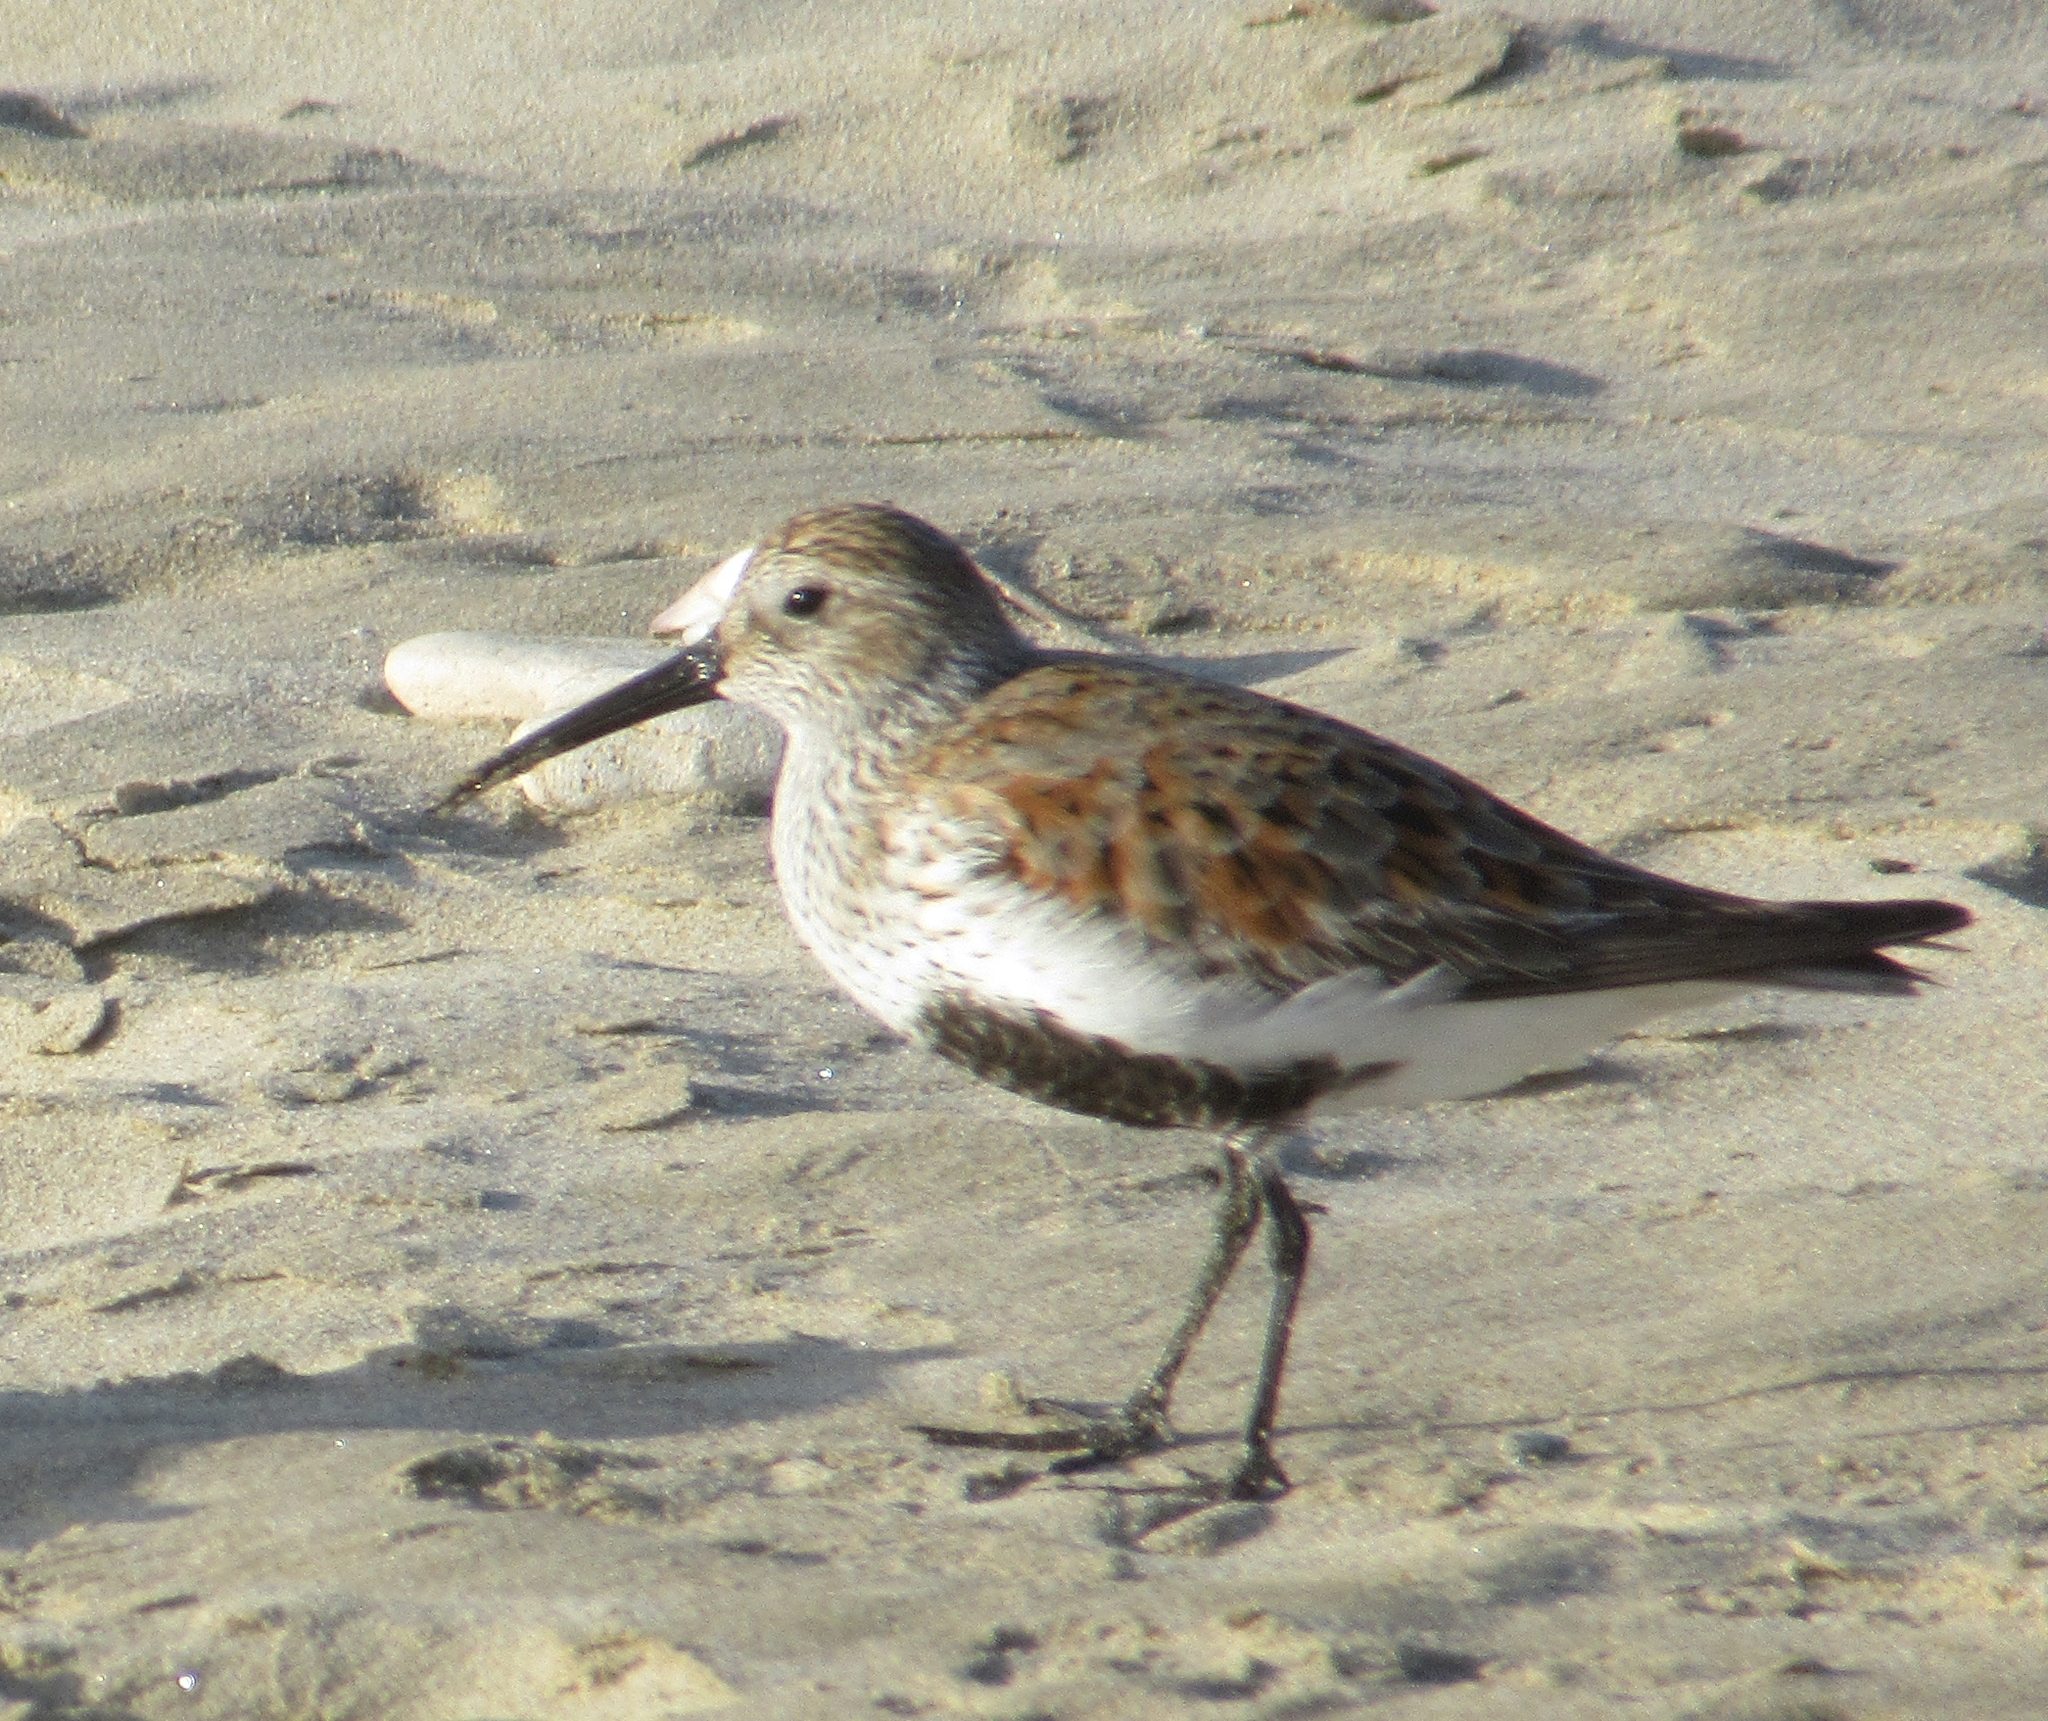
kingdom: Animalia
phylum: Chordata
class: Aves
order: Charadriiformes
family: Scolopacidae
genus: Calidris
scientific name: Calidris alpina
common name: Dunlin
